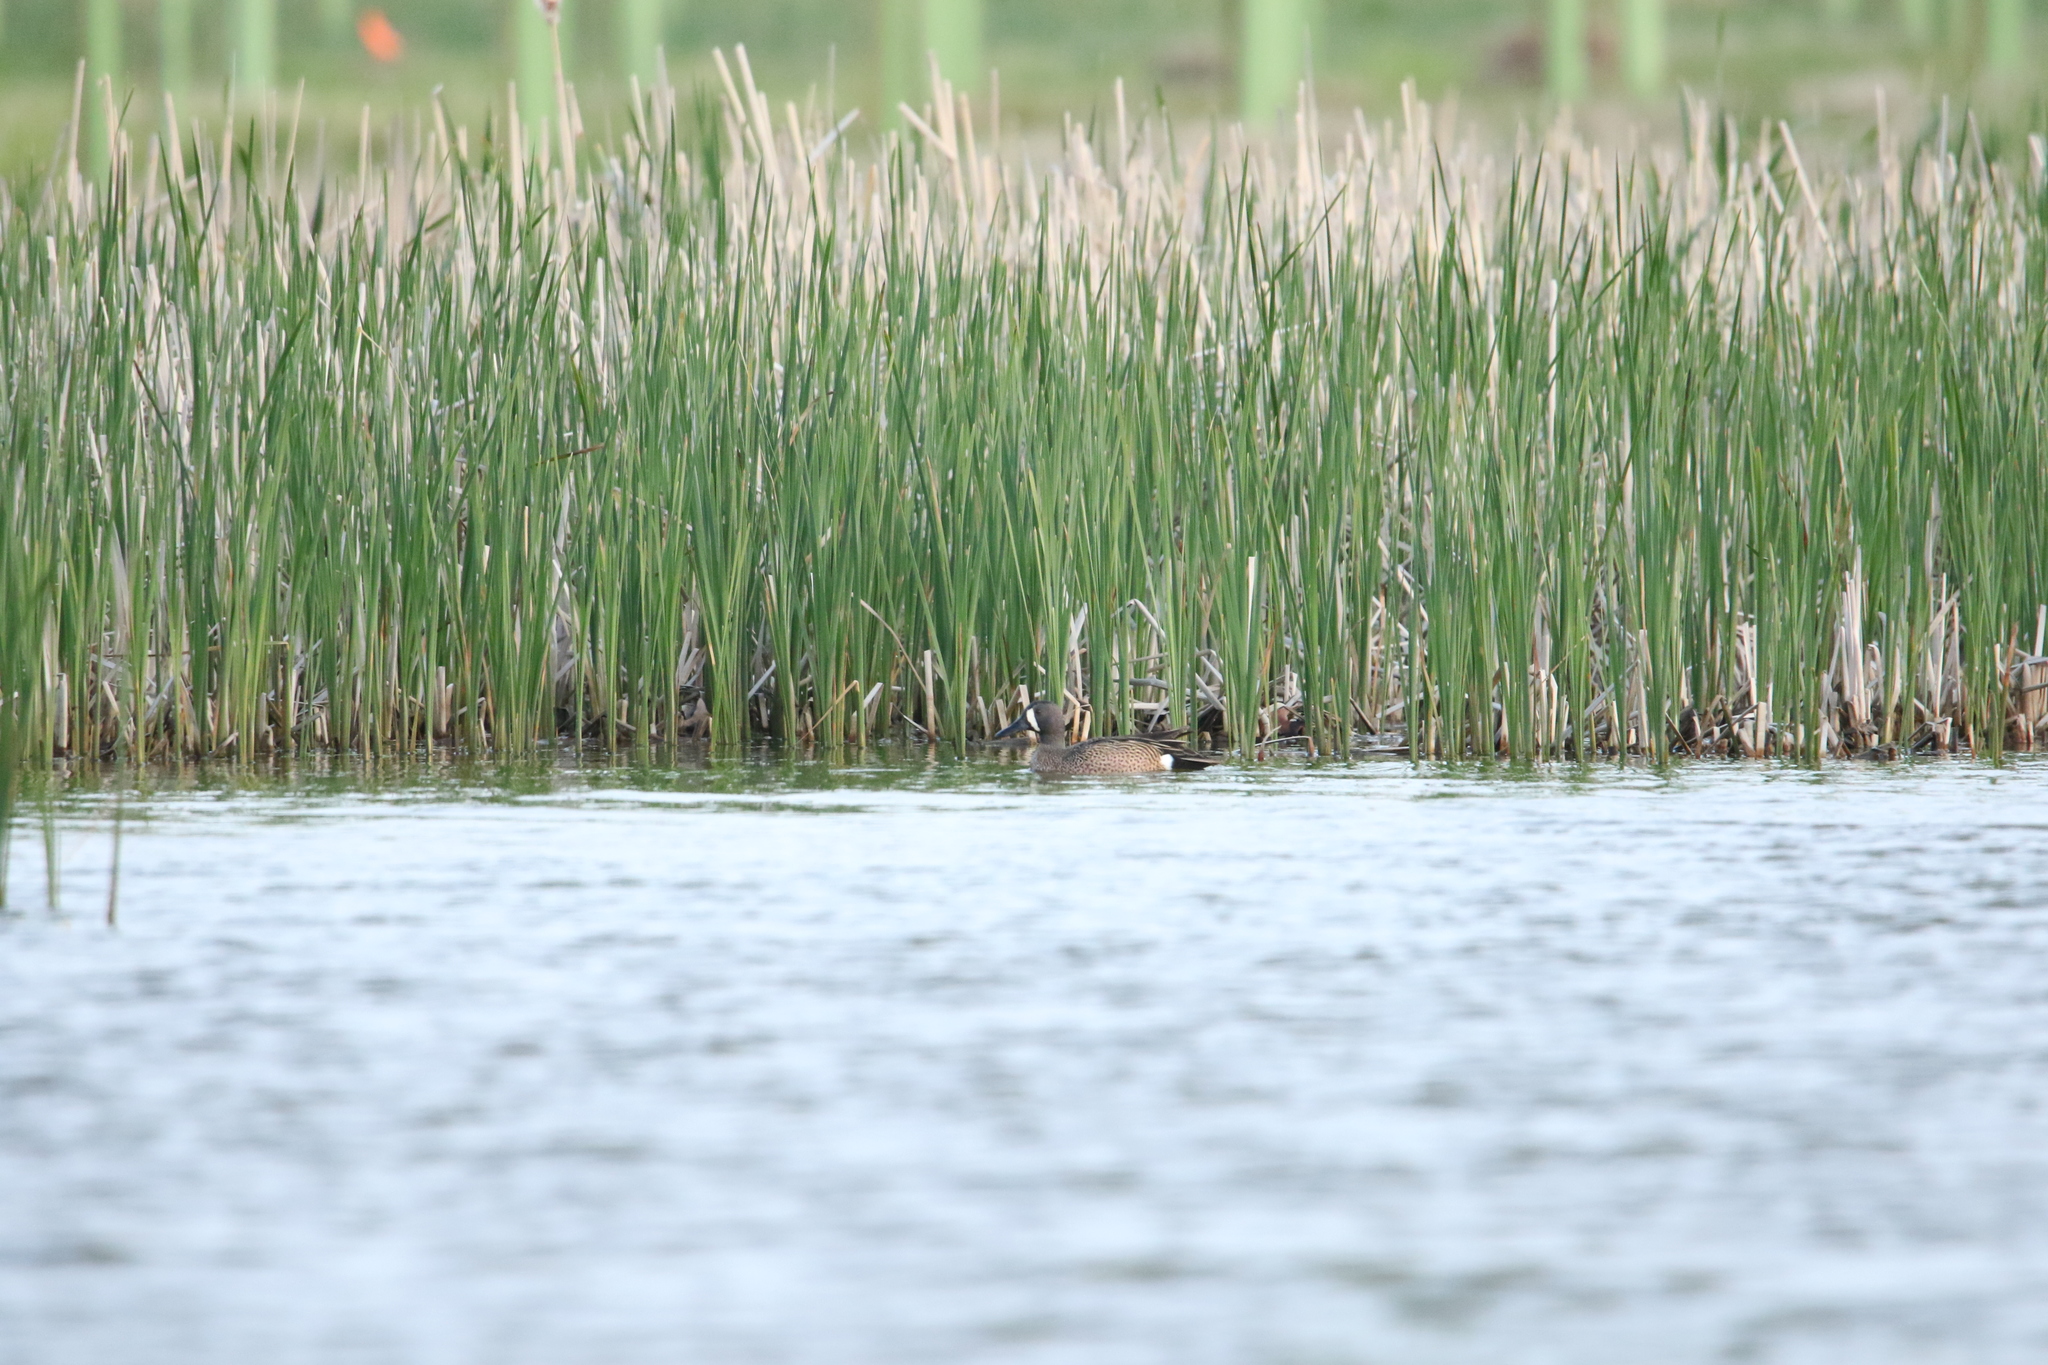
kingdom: Animalia
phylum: Chordata
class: Aves
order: Anseriformes
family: Anatidae
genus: Spatula
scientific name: Spatula discors
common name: Blue-winged teal
